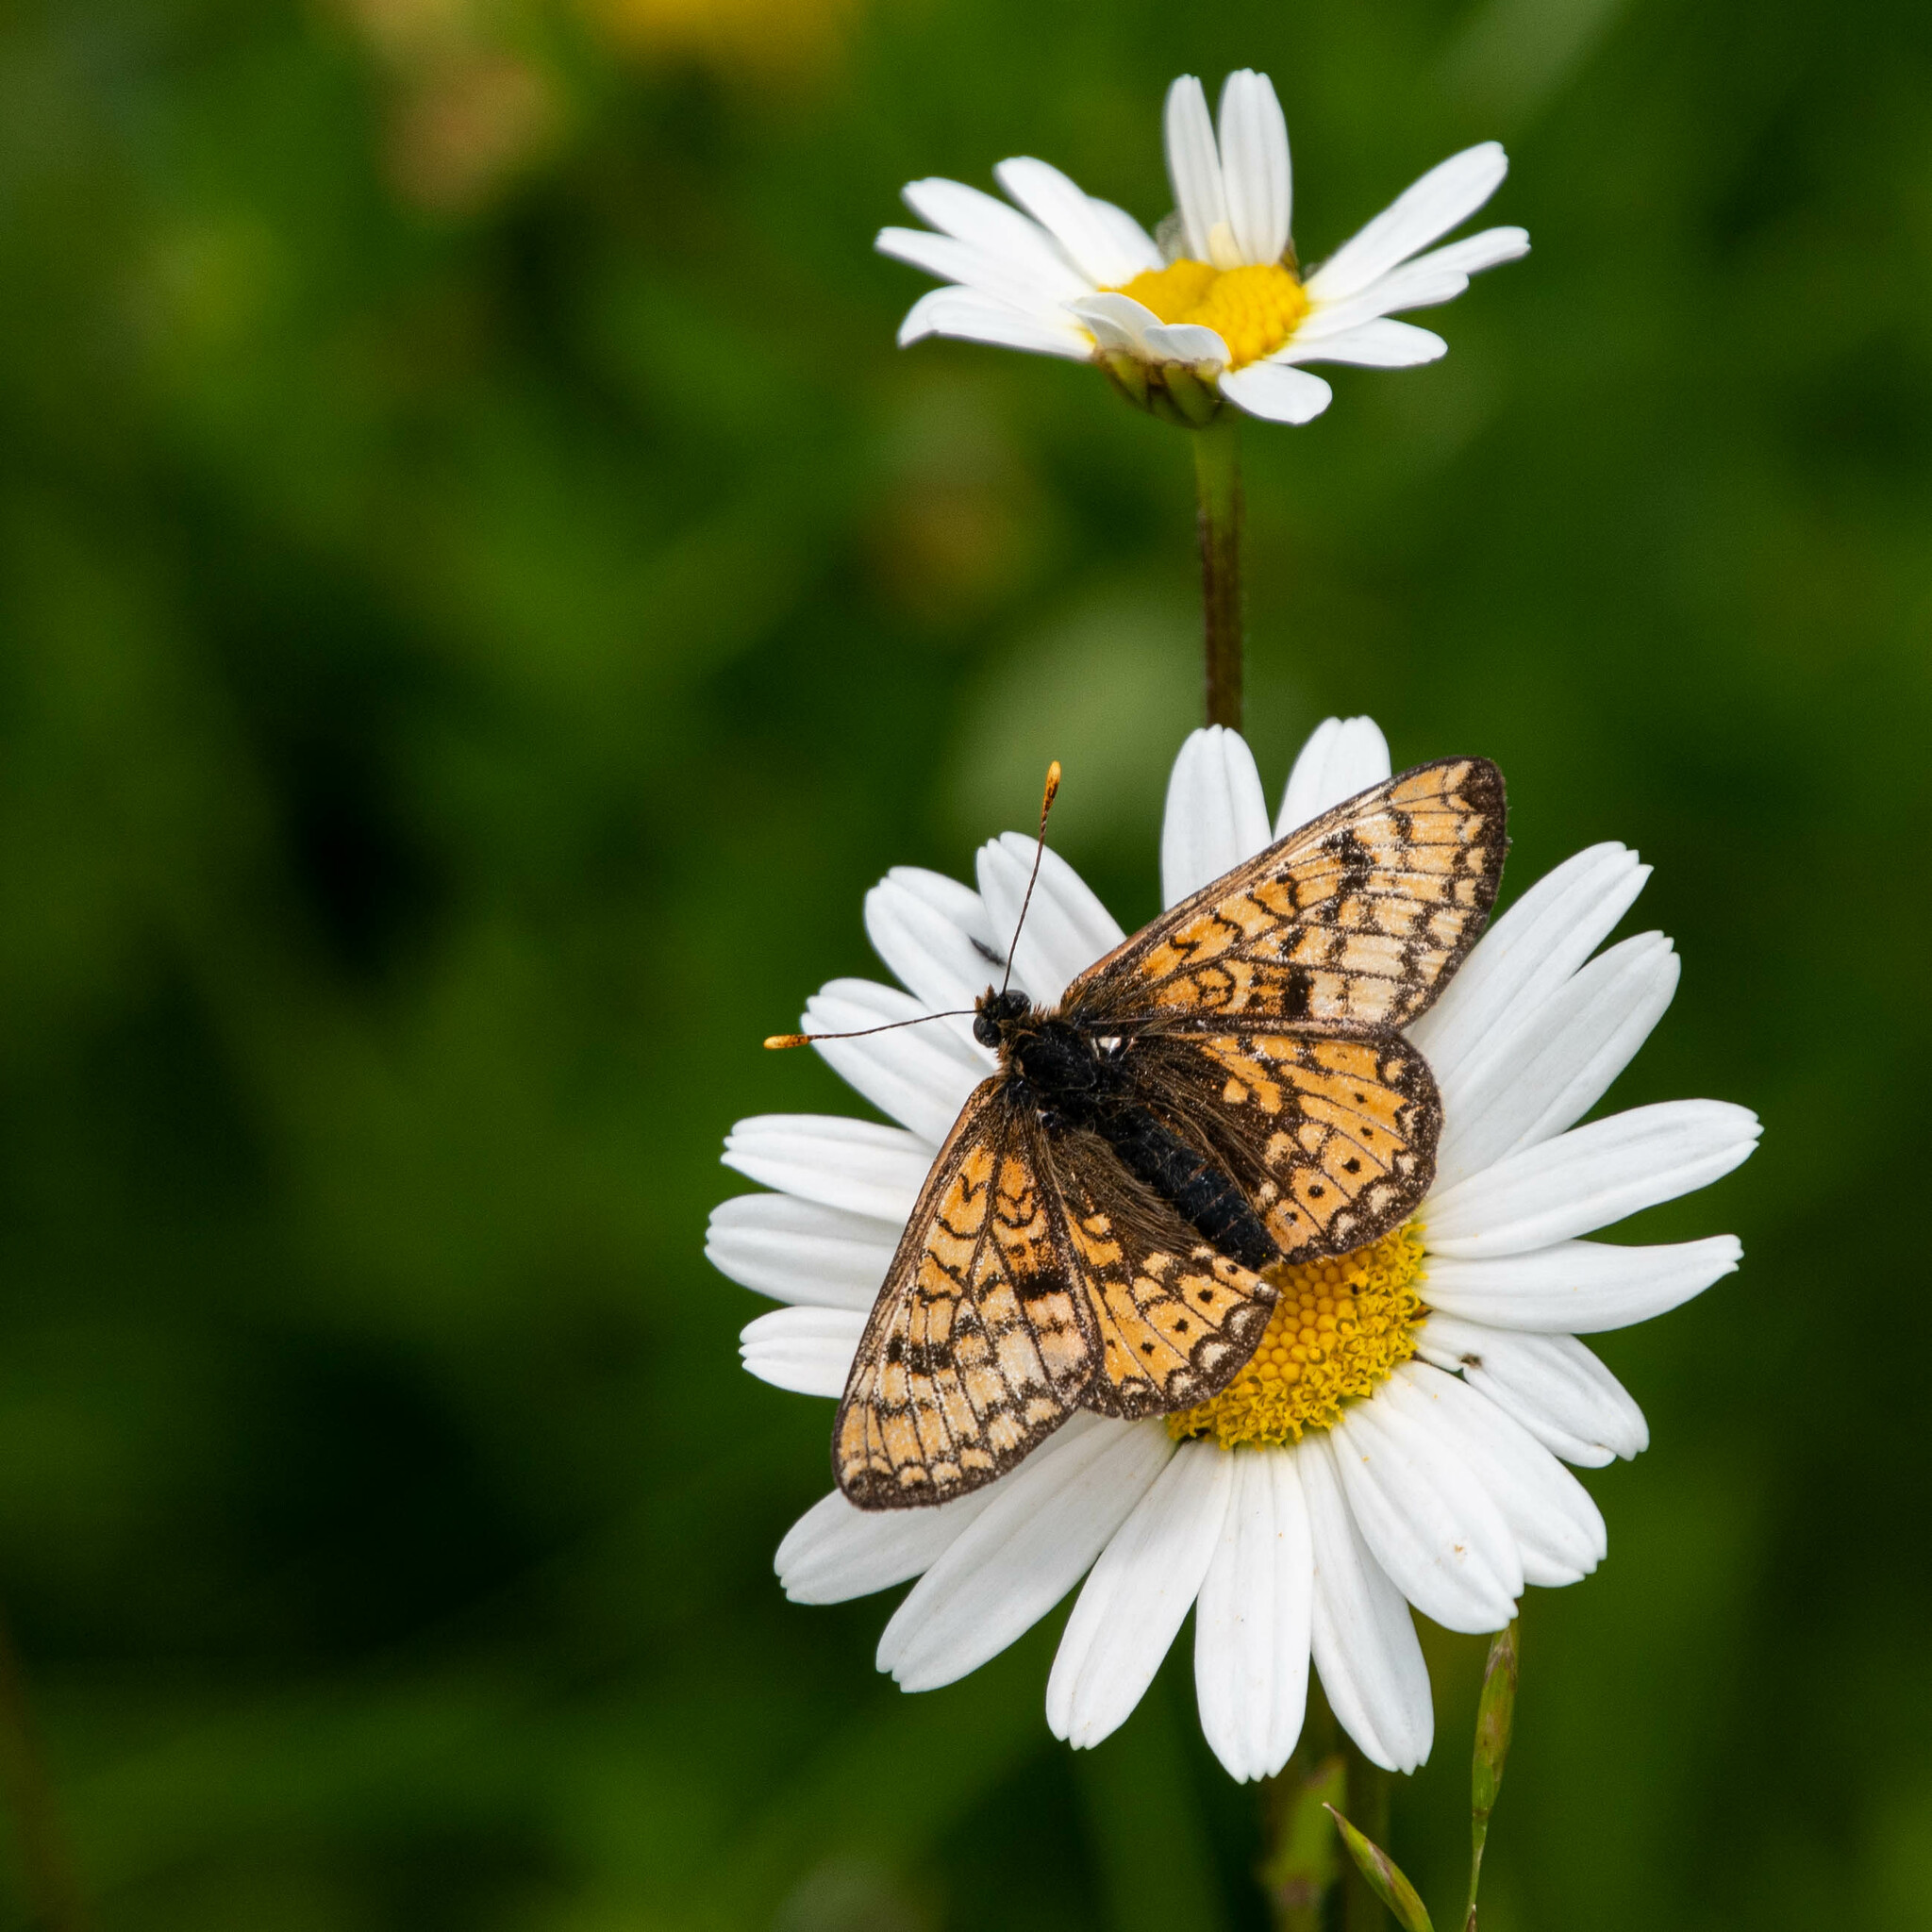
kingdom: Animalia
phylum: Arthropoda
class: Insecta
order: Lepidoptera
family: Nymphalidae
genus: Euphydryas
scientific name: Euphydryas aurinia
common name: Marsh fritillary
